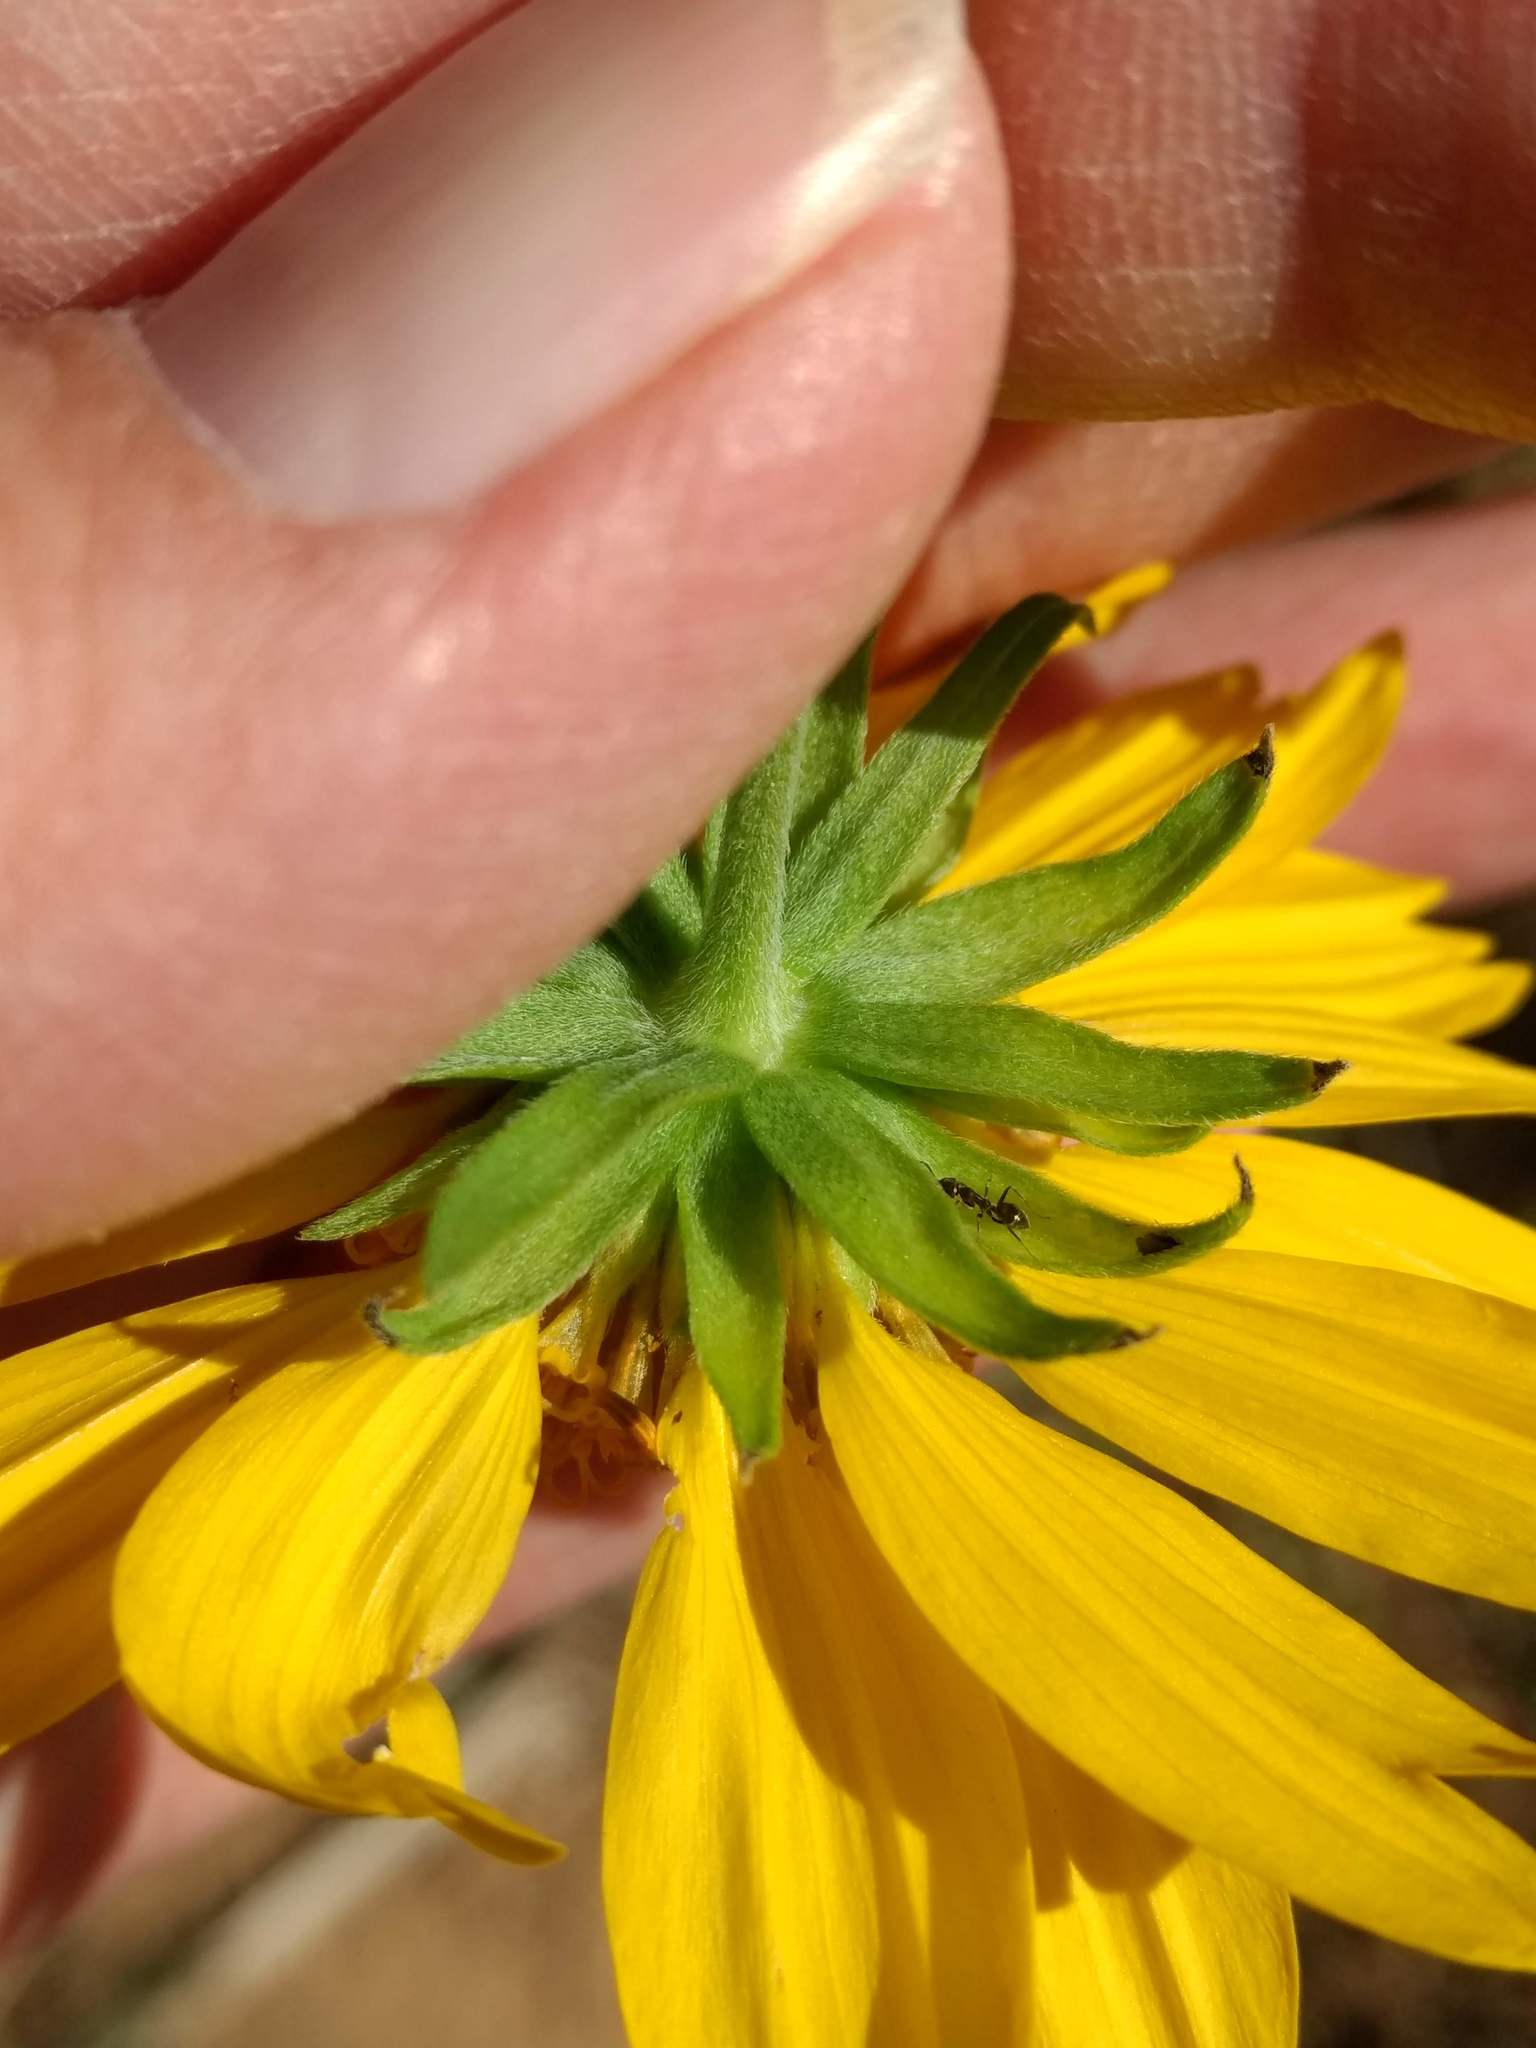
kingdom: Plantae
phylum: Tracheophyta
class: Magnoliopsida
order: Asterales
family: Asteraceae
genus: Verbesina
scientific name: Verbesina encelioides
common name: Golden crownbeard
